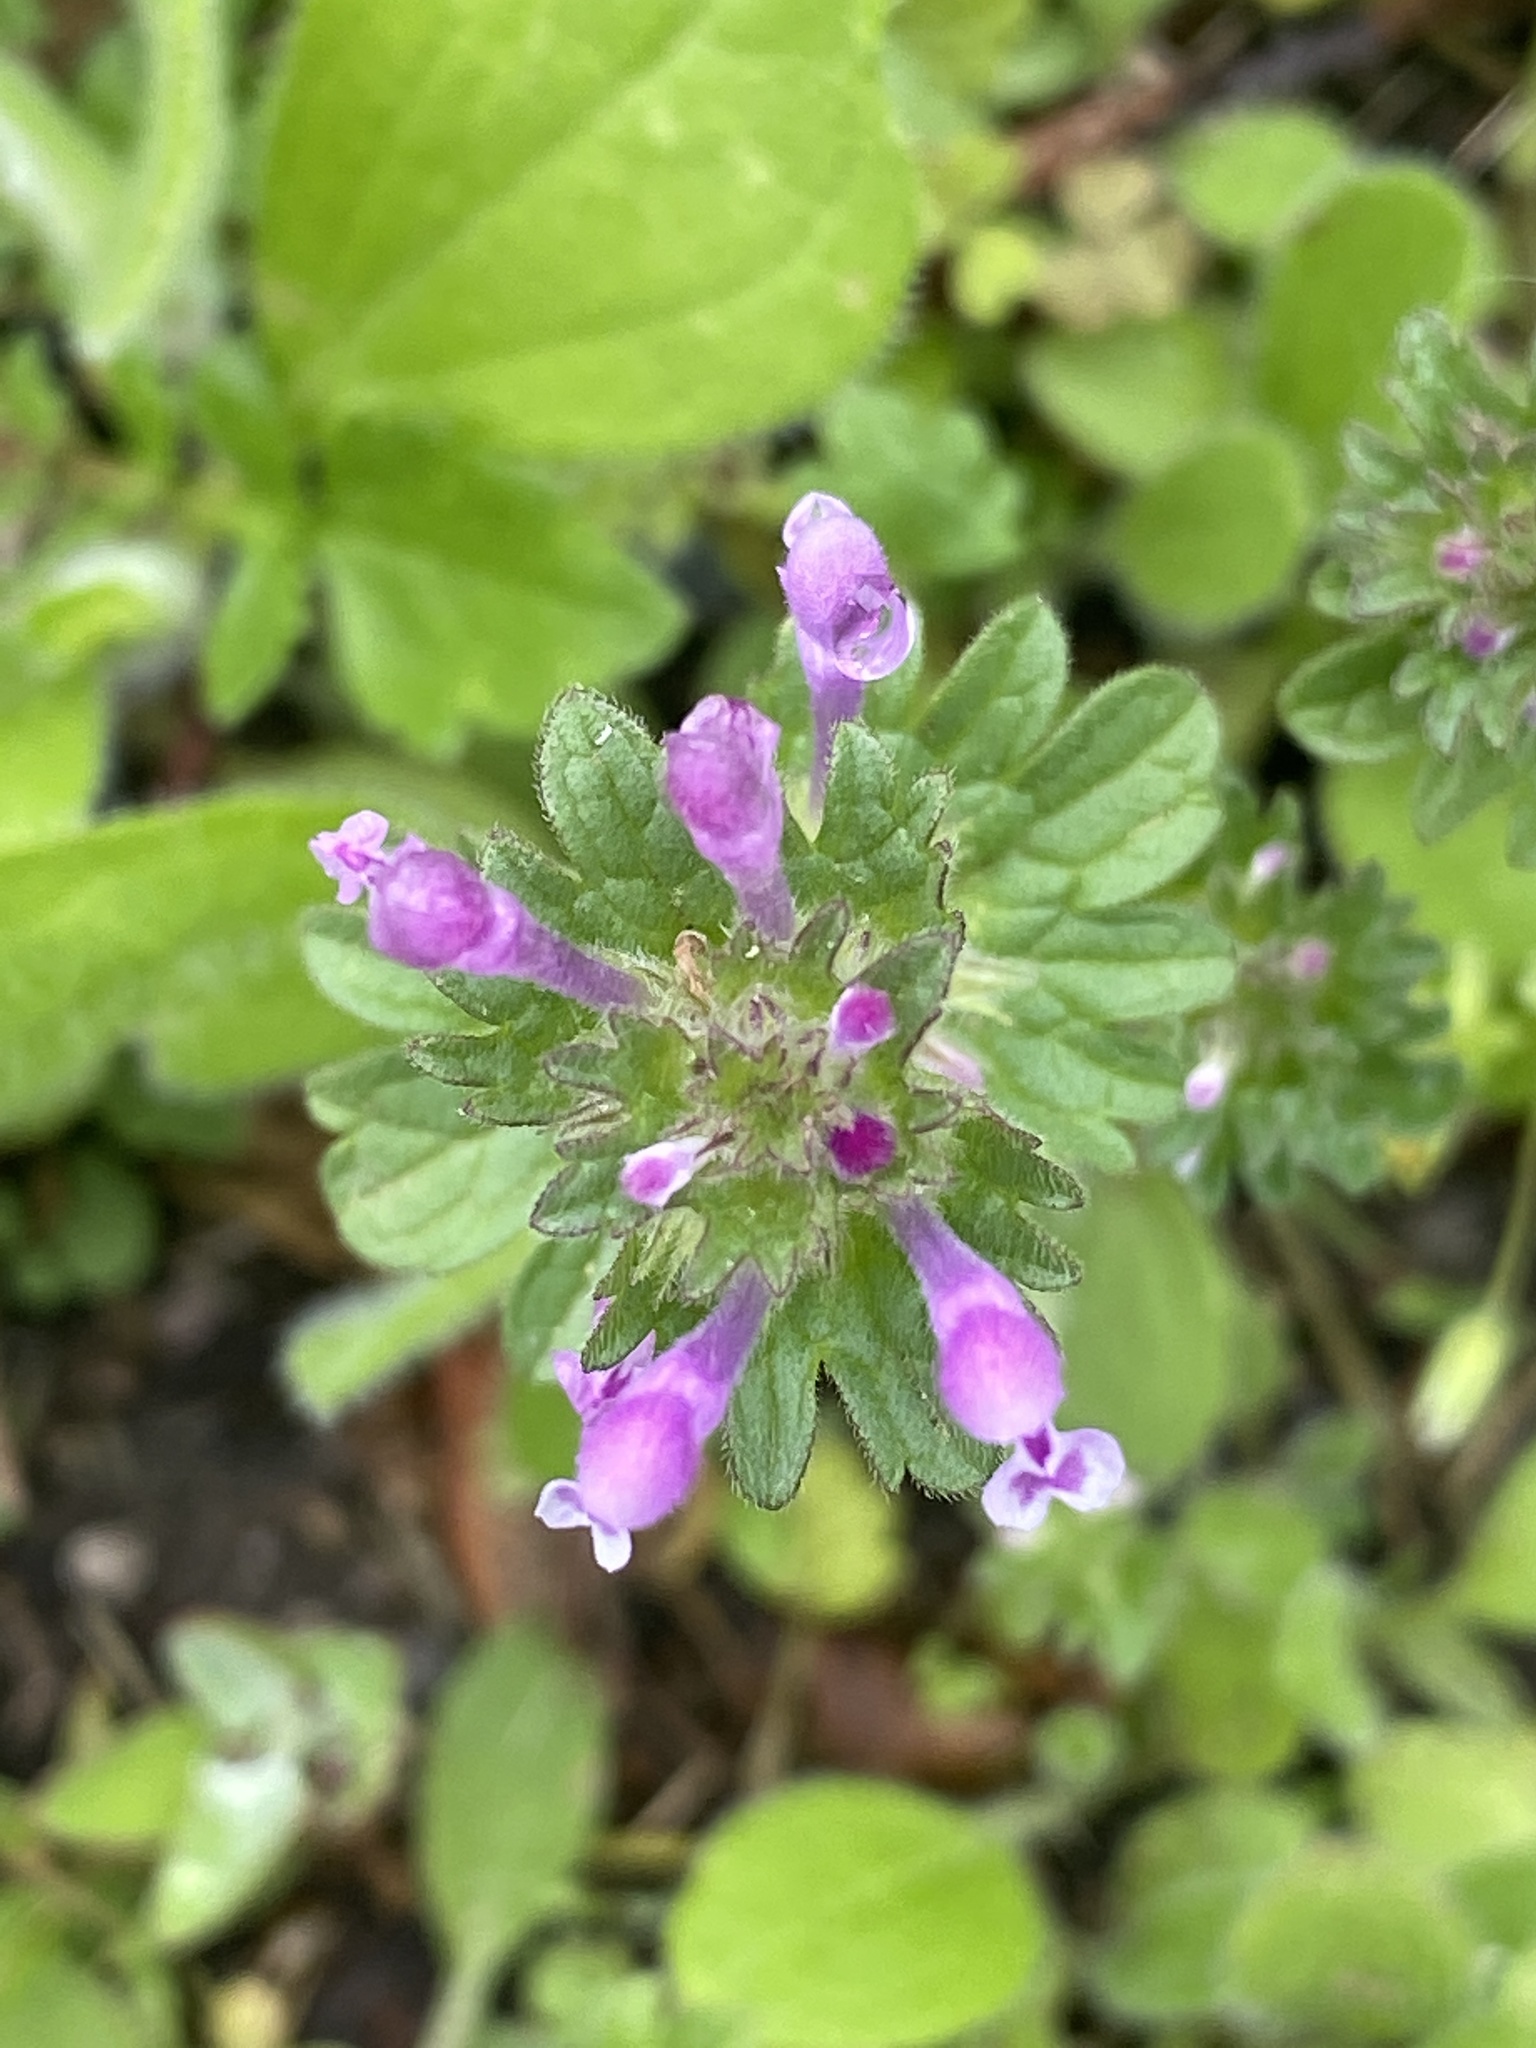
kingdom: Plantae
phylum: Tracheophyta
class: Magnoliopsida
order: Lamiales
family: Lamiaceae
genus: Lamium
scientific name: Lamium amplexicaule
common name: Henbit dead-nettle
